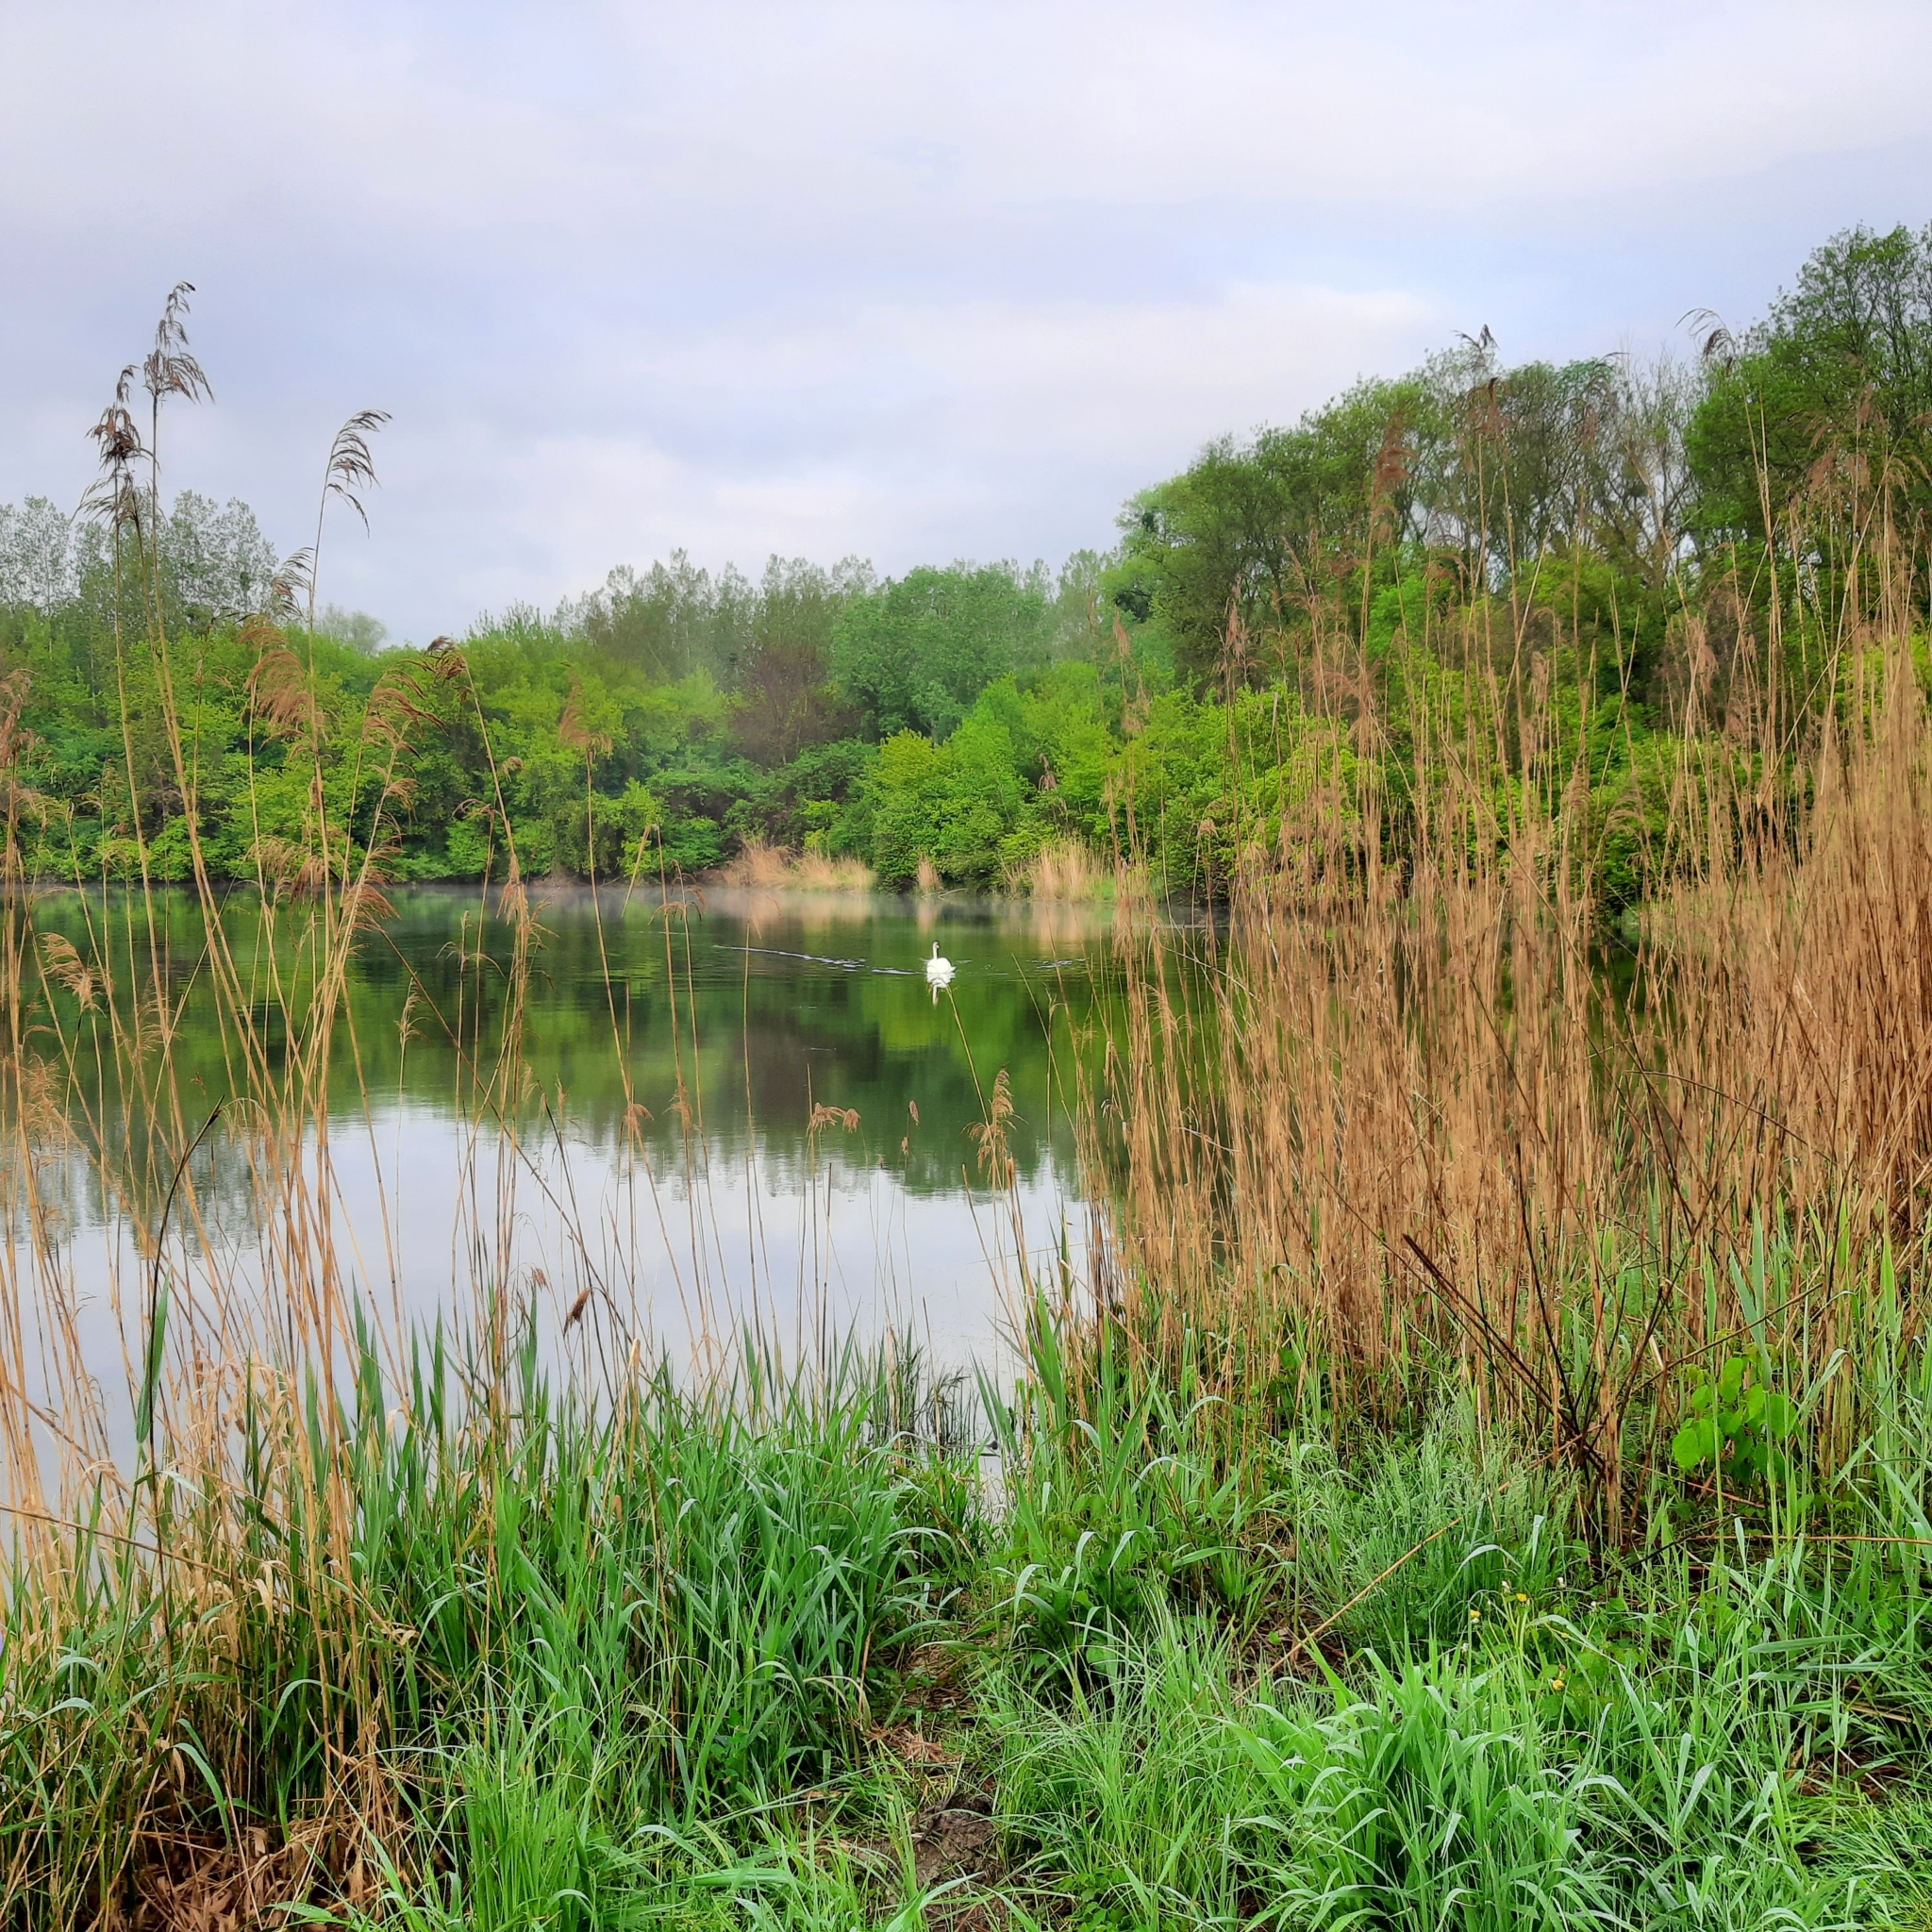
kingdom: Animalia
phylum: Chordata
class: Amphibia
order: Anura
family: Ranidae
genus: Pelophylax
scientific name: Pelophylax ridibundus
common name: Marsh frog
